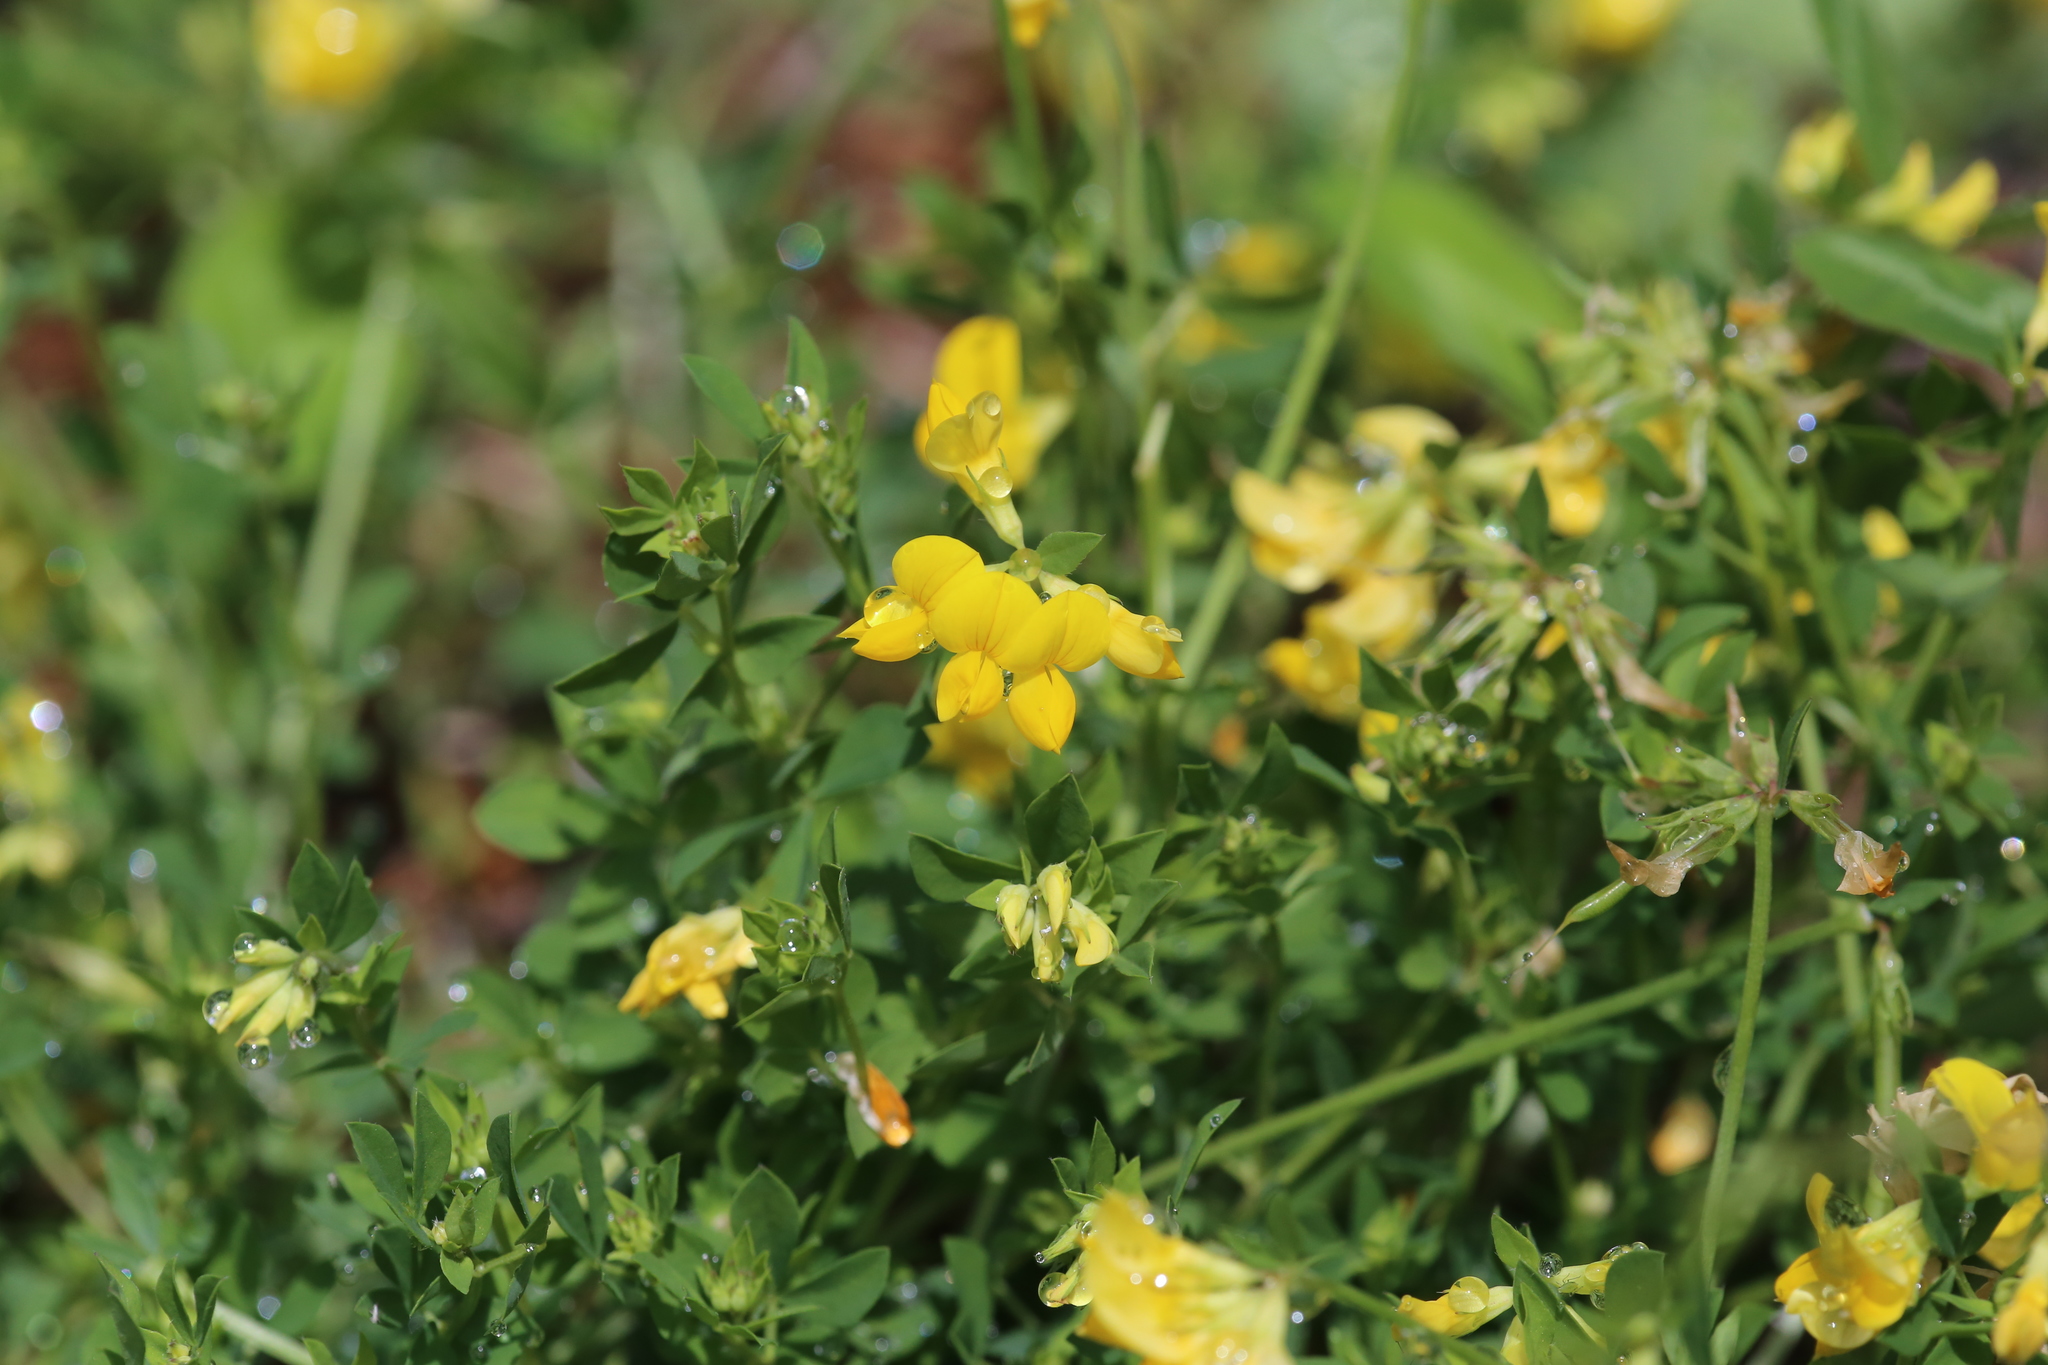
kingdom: Plantae
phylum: Tracheophyta
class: Magnoliopsida
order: Fabales
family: Fabaceae
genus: Lotus
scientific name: Lotus corniculatus
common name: Common bird's-foot-trefoil
